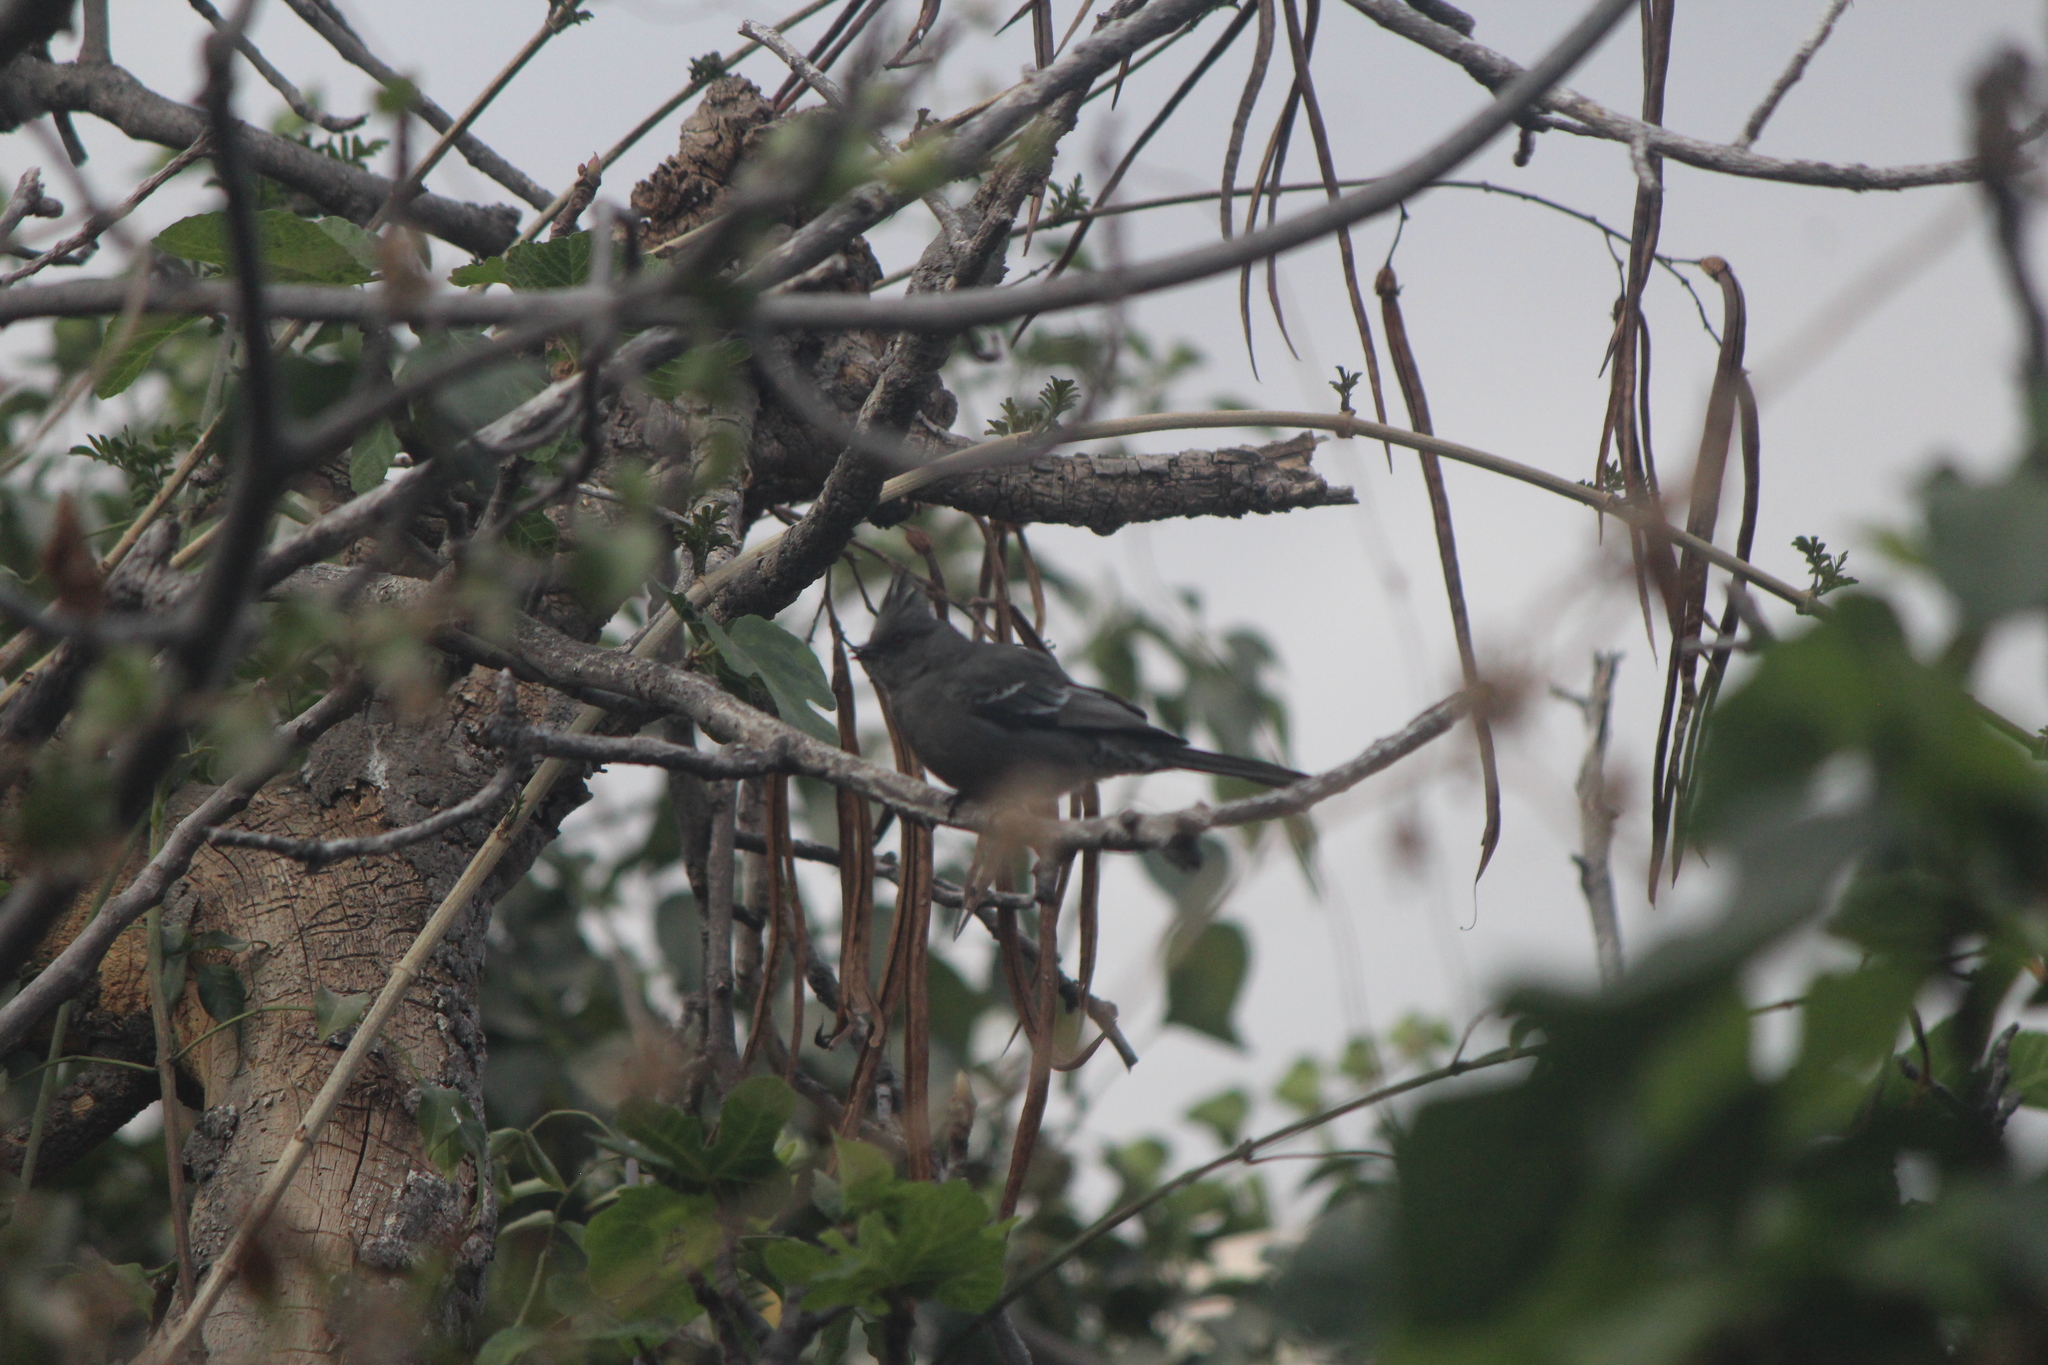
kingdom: Animalia
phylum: Chordata
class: Aves
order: Passeriformes
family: Ptilogonatidae
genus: Phainopepla
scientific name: Phainopepla nitens
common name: Phainopepla
